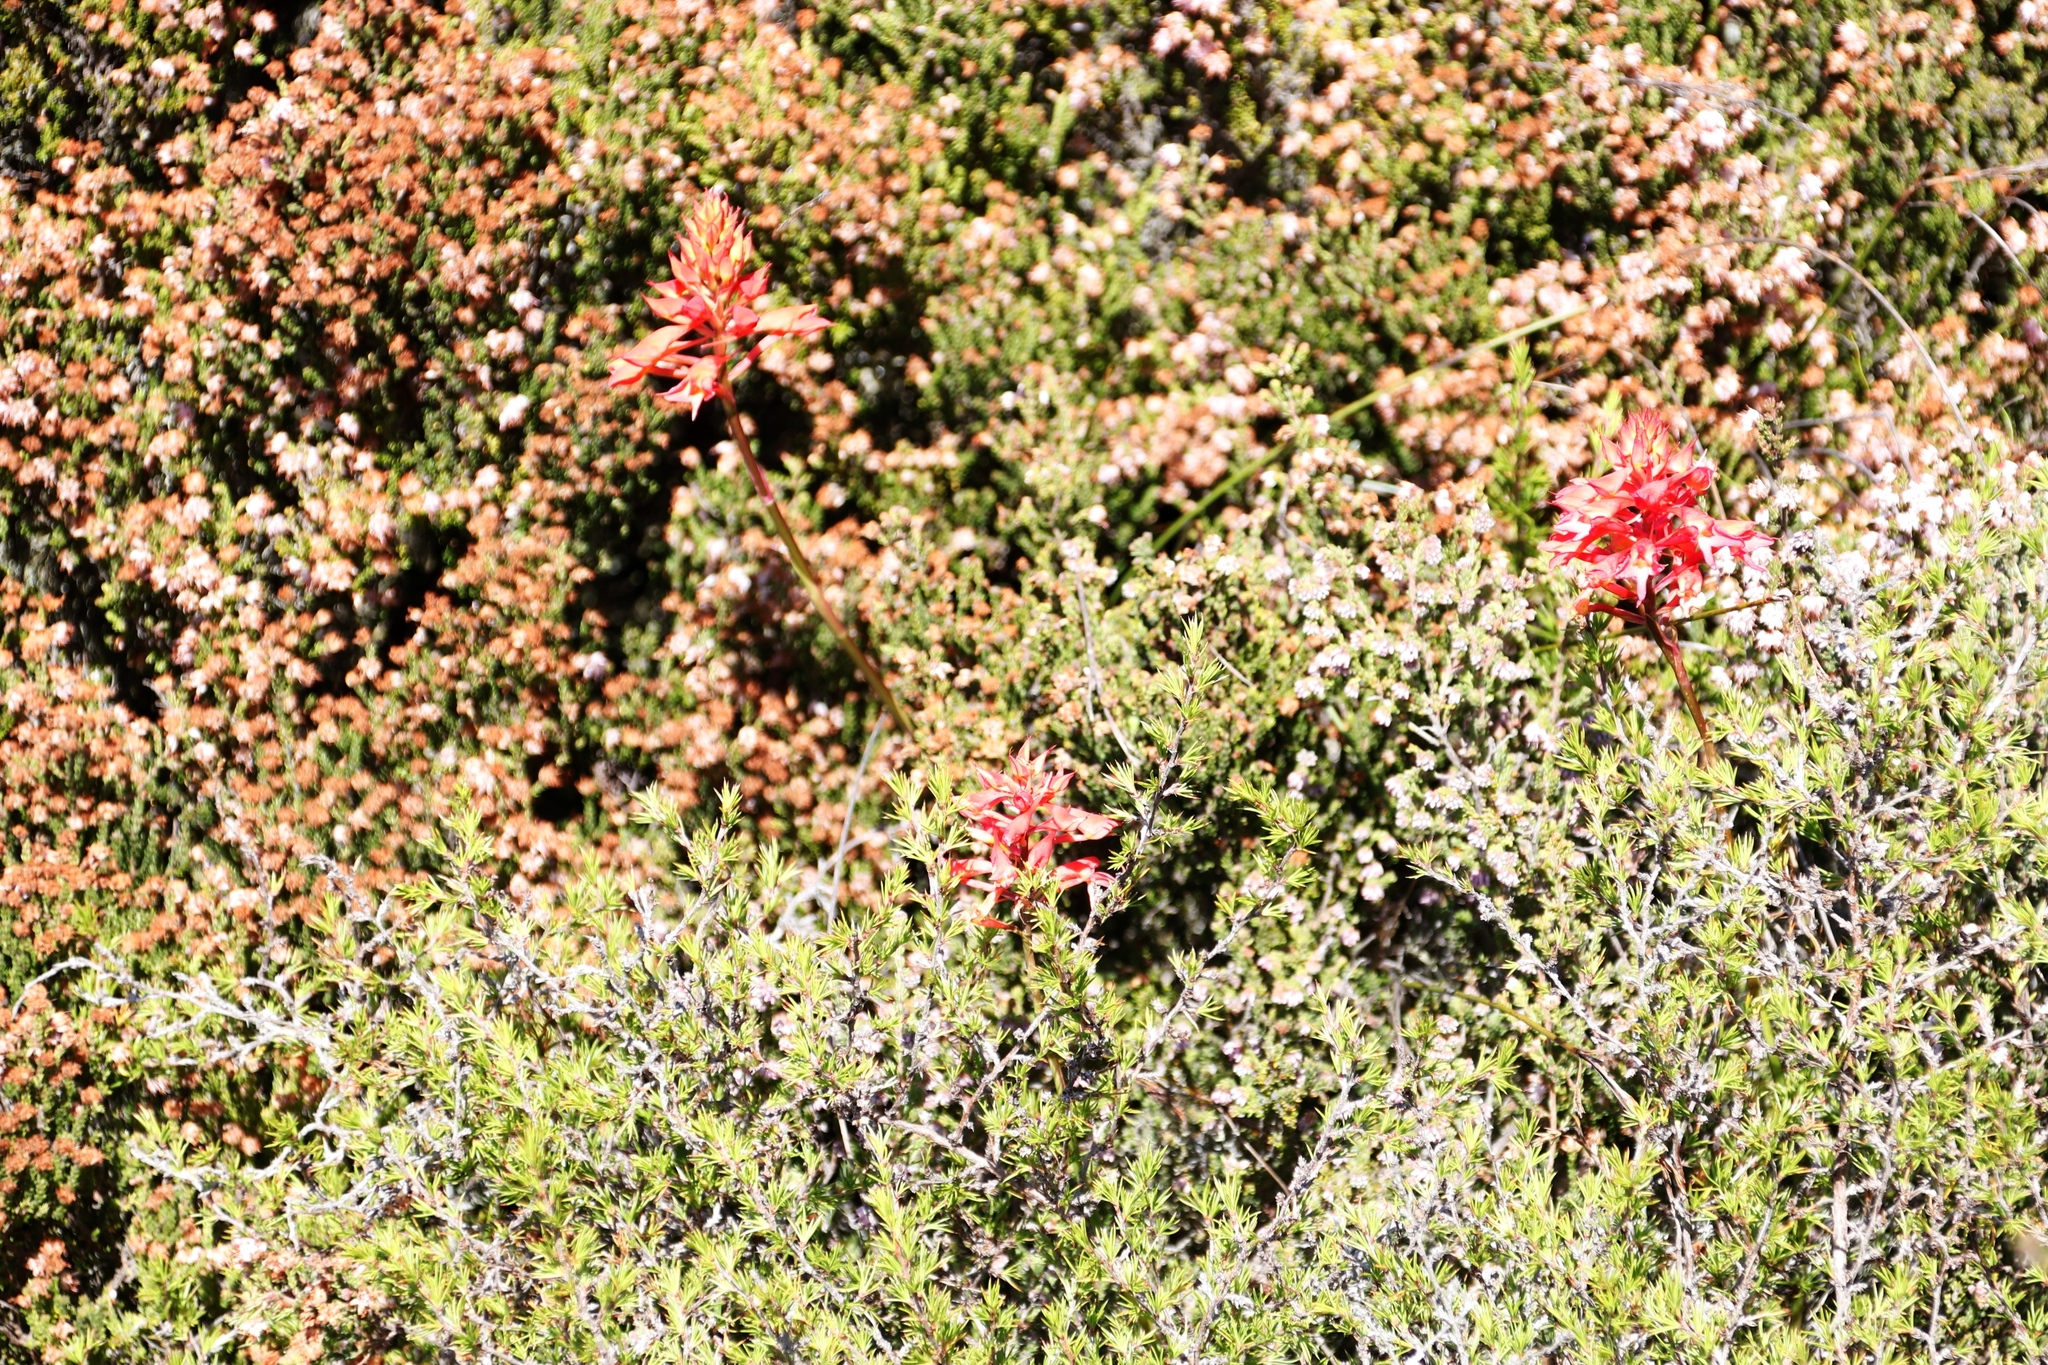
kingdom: Plantae
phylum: Tracheophyta
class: Liliopsida
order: Asparagales
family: Orchidaceae
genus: Disa
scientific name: Disa ferruginea
